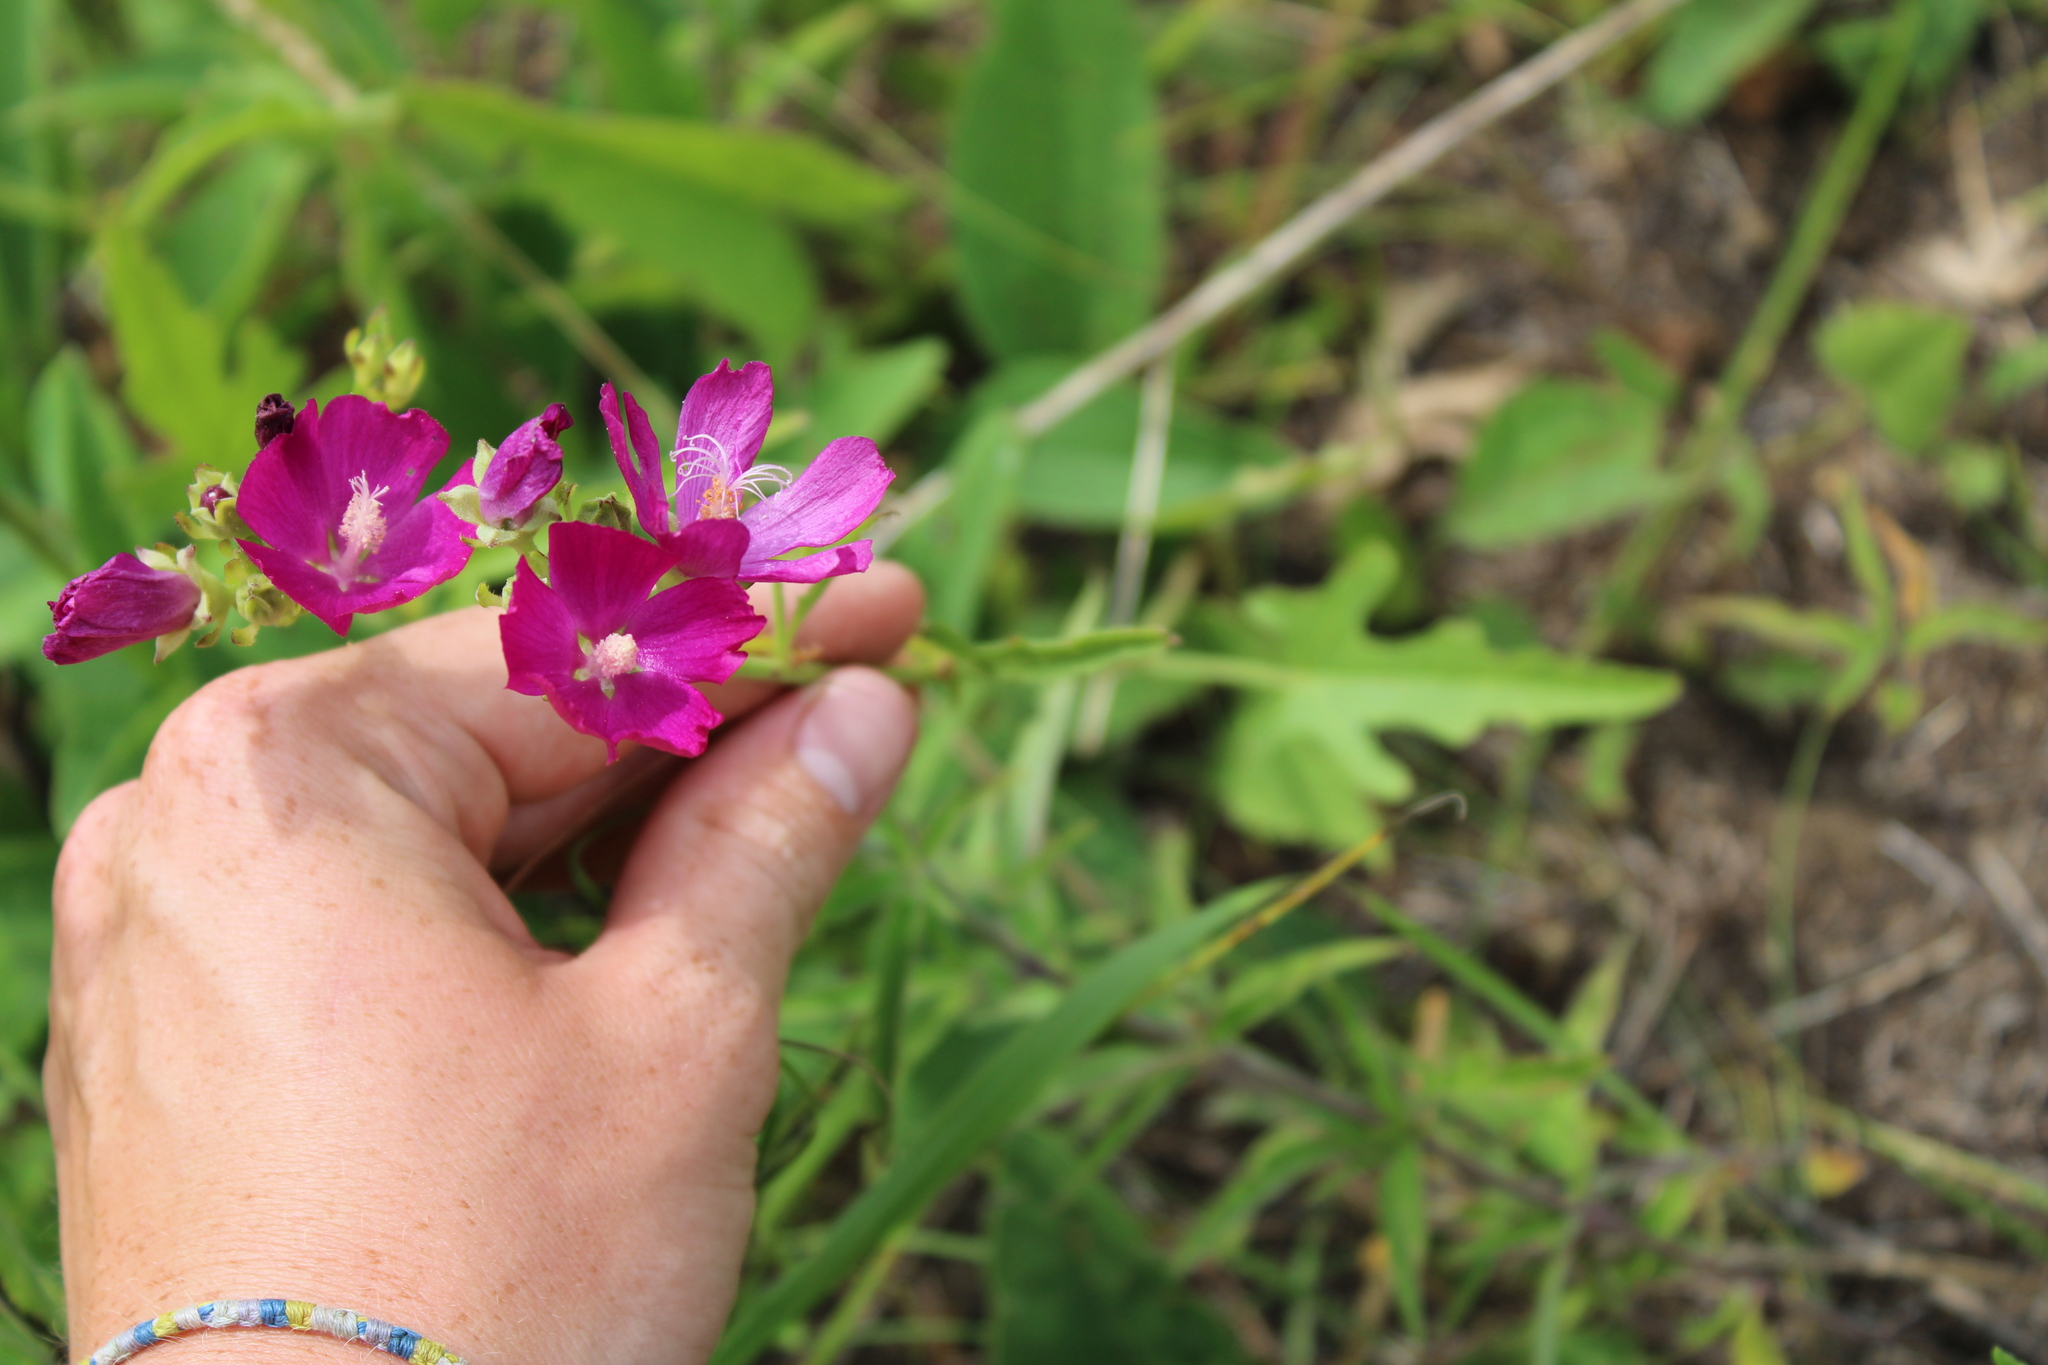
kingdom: Plantae
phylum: Tracheophyta
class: Magnoliopsida
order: Malvales
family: Malvaceae
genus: Callirhoe
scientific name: Callirhoe triangulata
